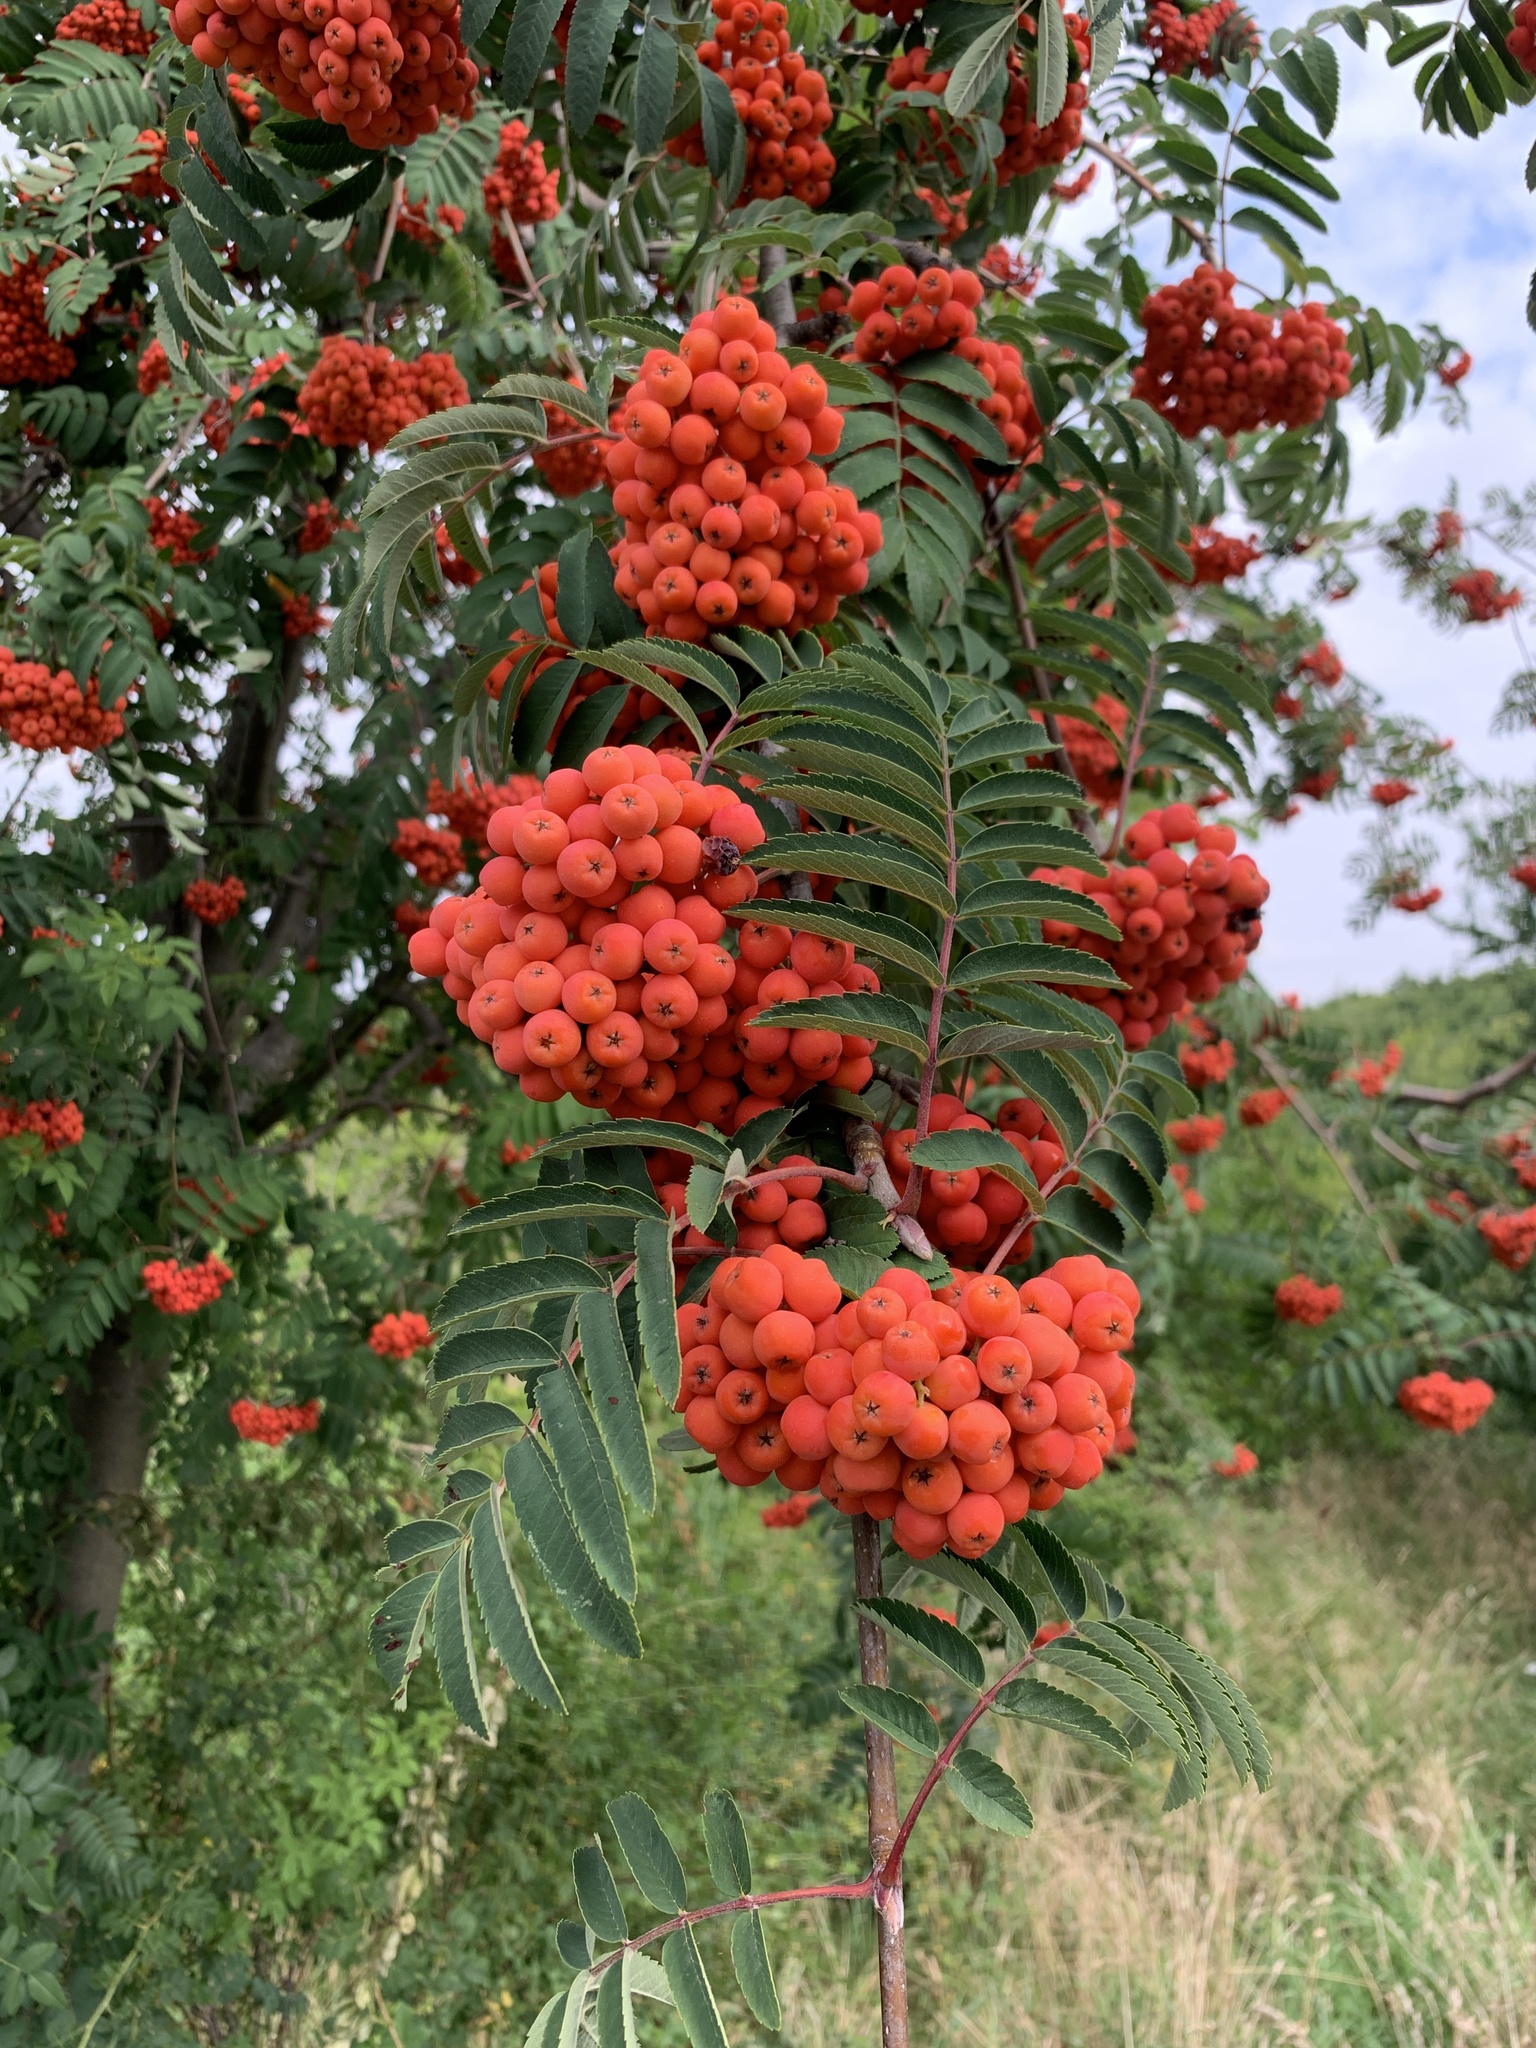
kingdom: Plantae
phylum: Tracheophyta
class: Magnoliopsida
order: Rosales
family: Rosaceae
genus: Sorbus
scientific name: Sorbus aucuparia
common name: Rowan
